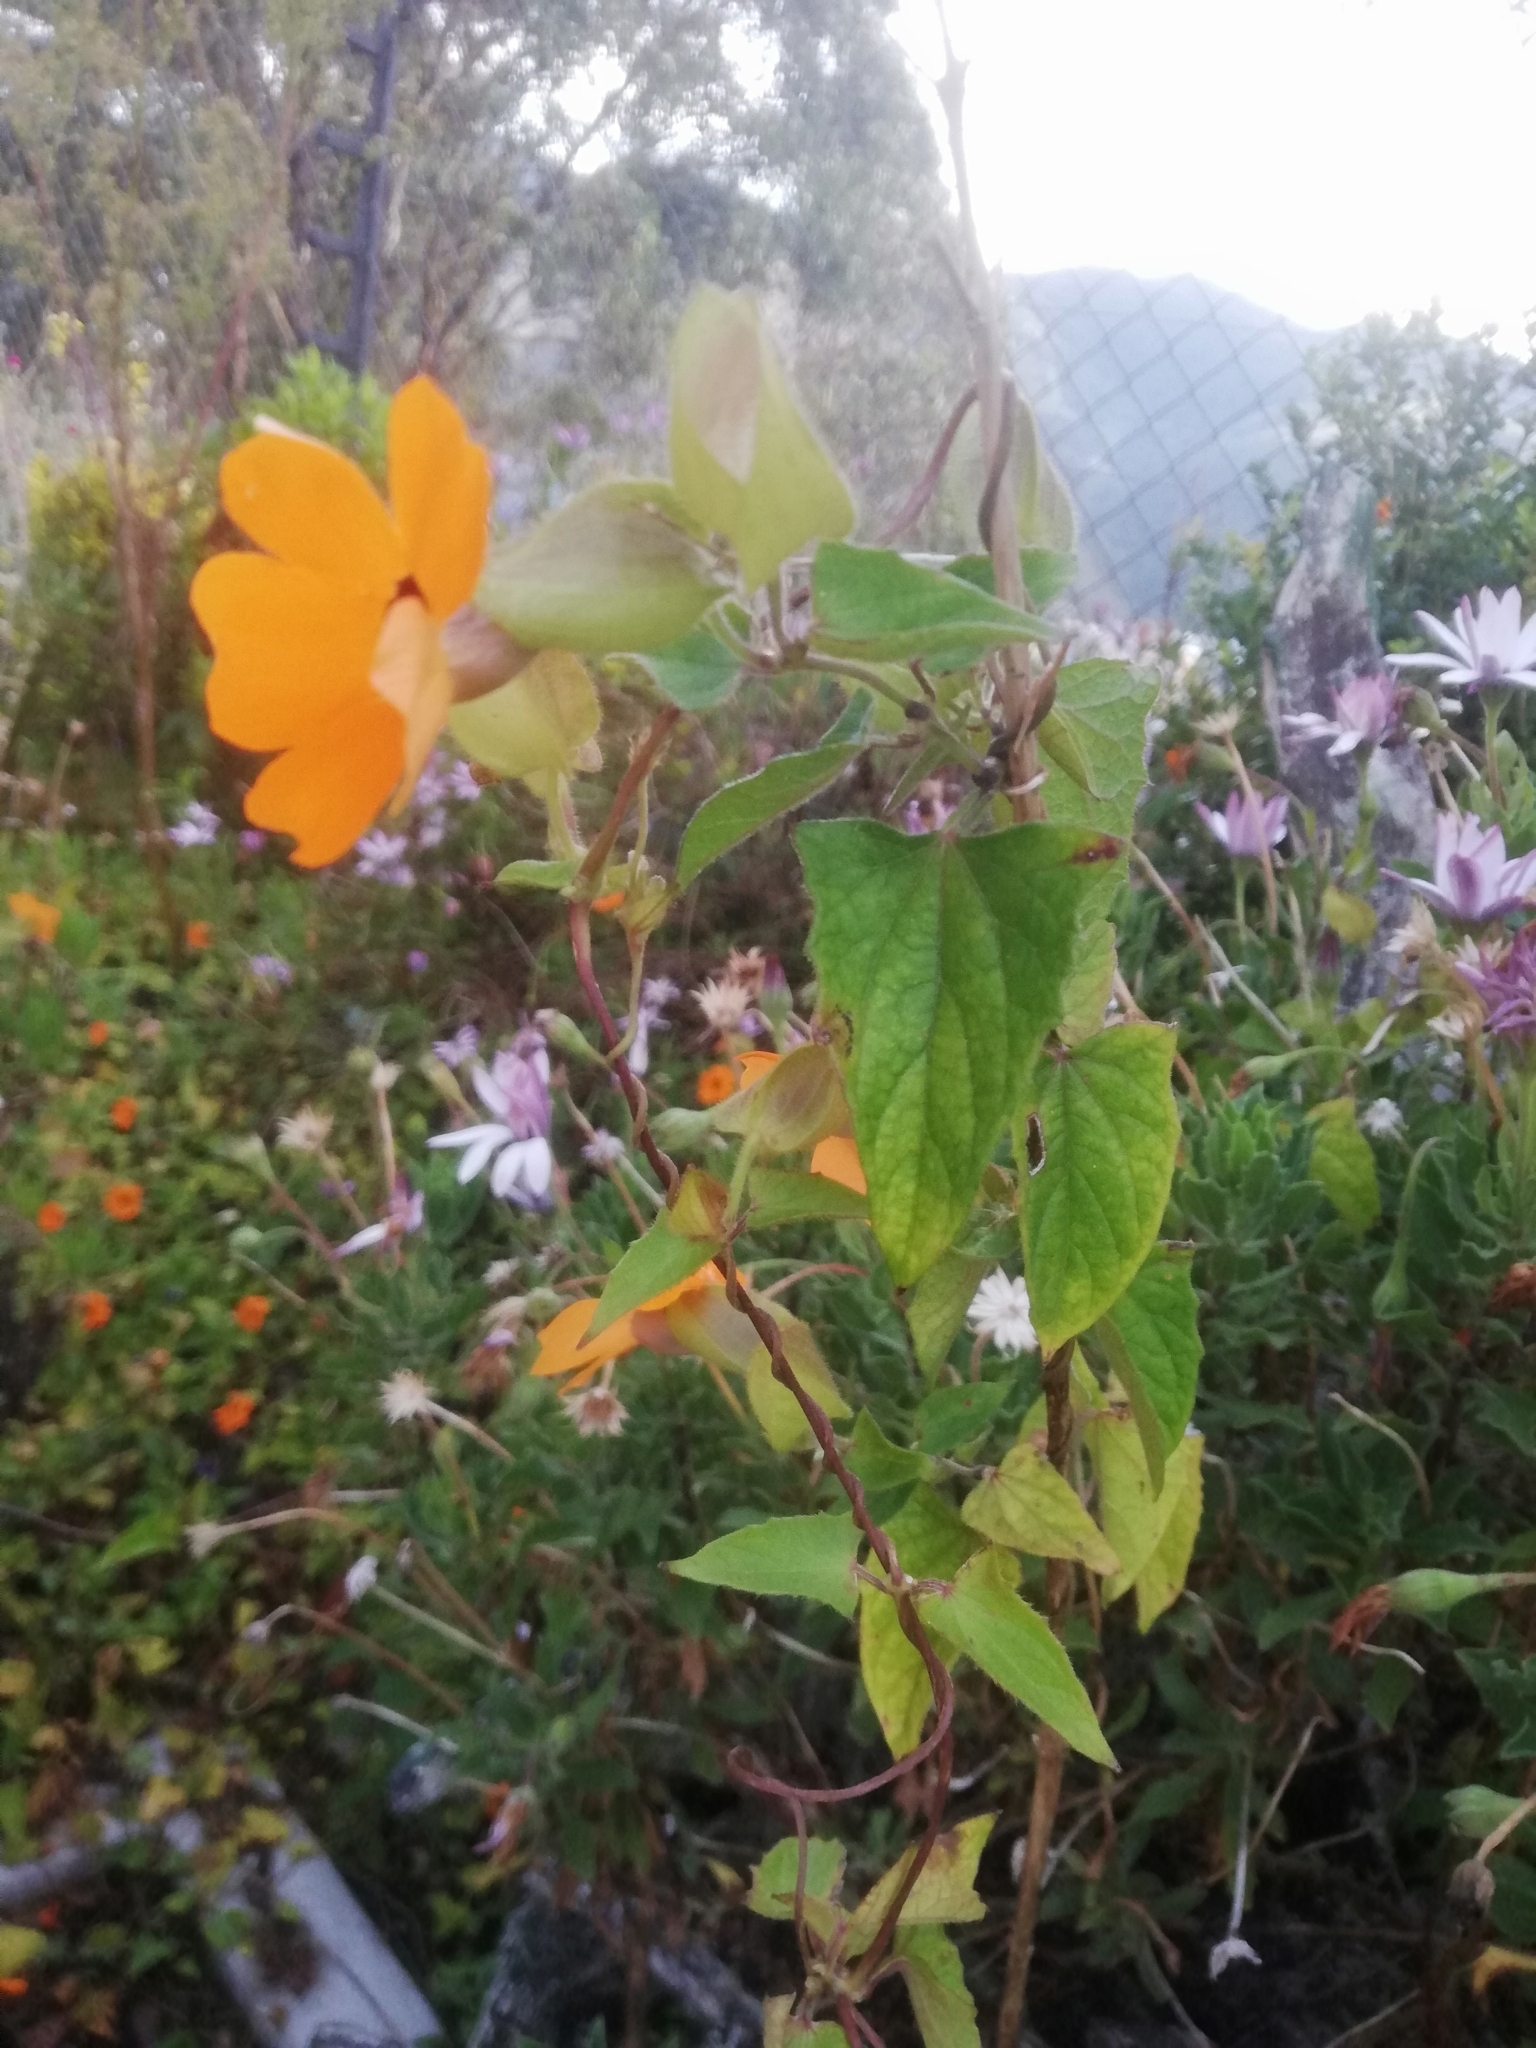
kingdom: Plantae
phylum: Tracheophyta
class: Magnoliopsida
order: Lamiales
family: Acanthaceae
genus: Thunbergia
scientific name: Thunbergia alata
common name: Blackeyed susan vine
